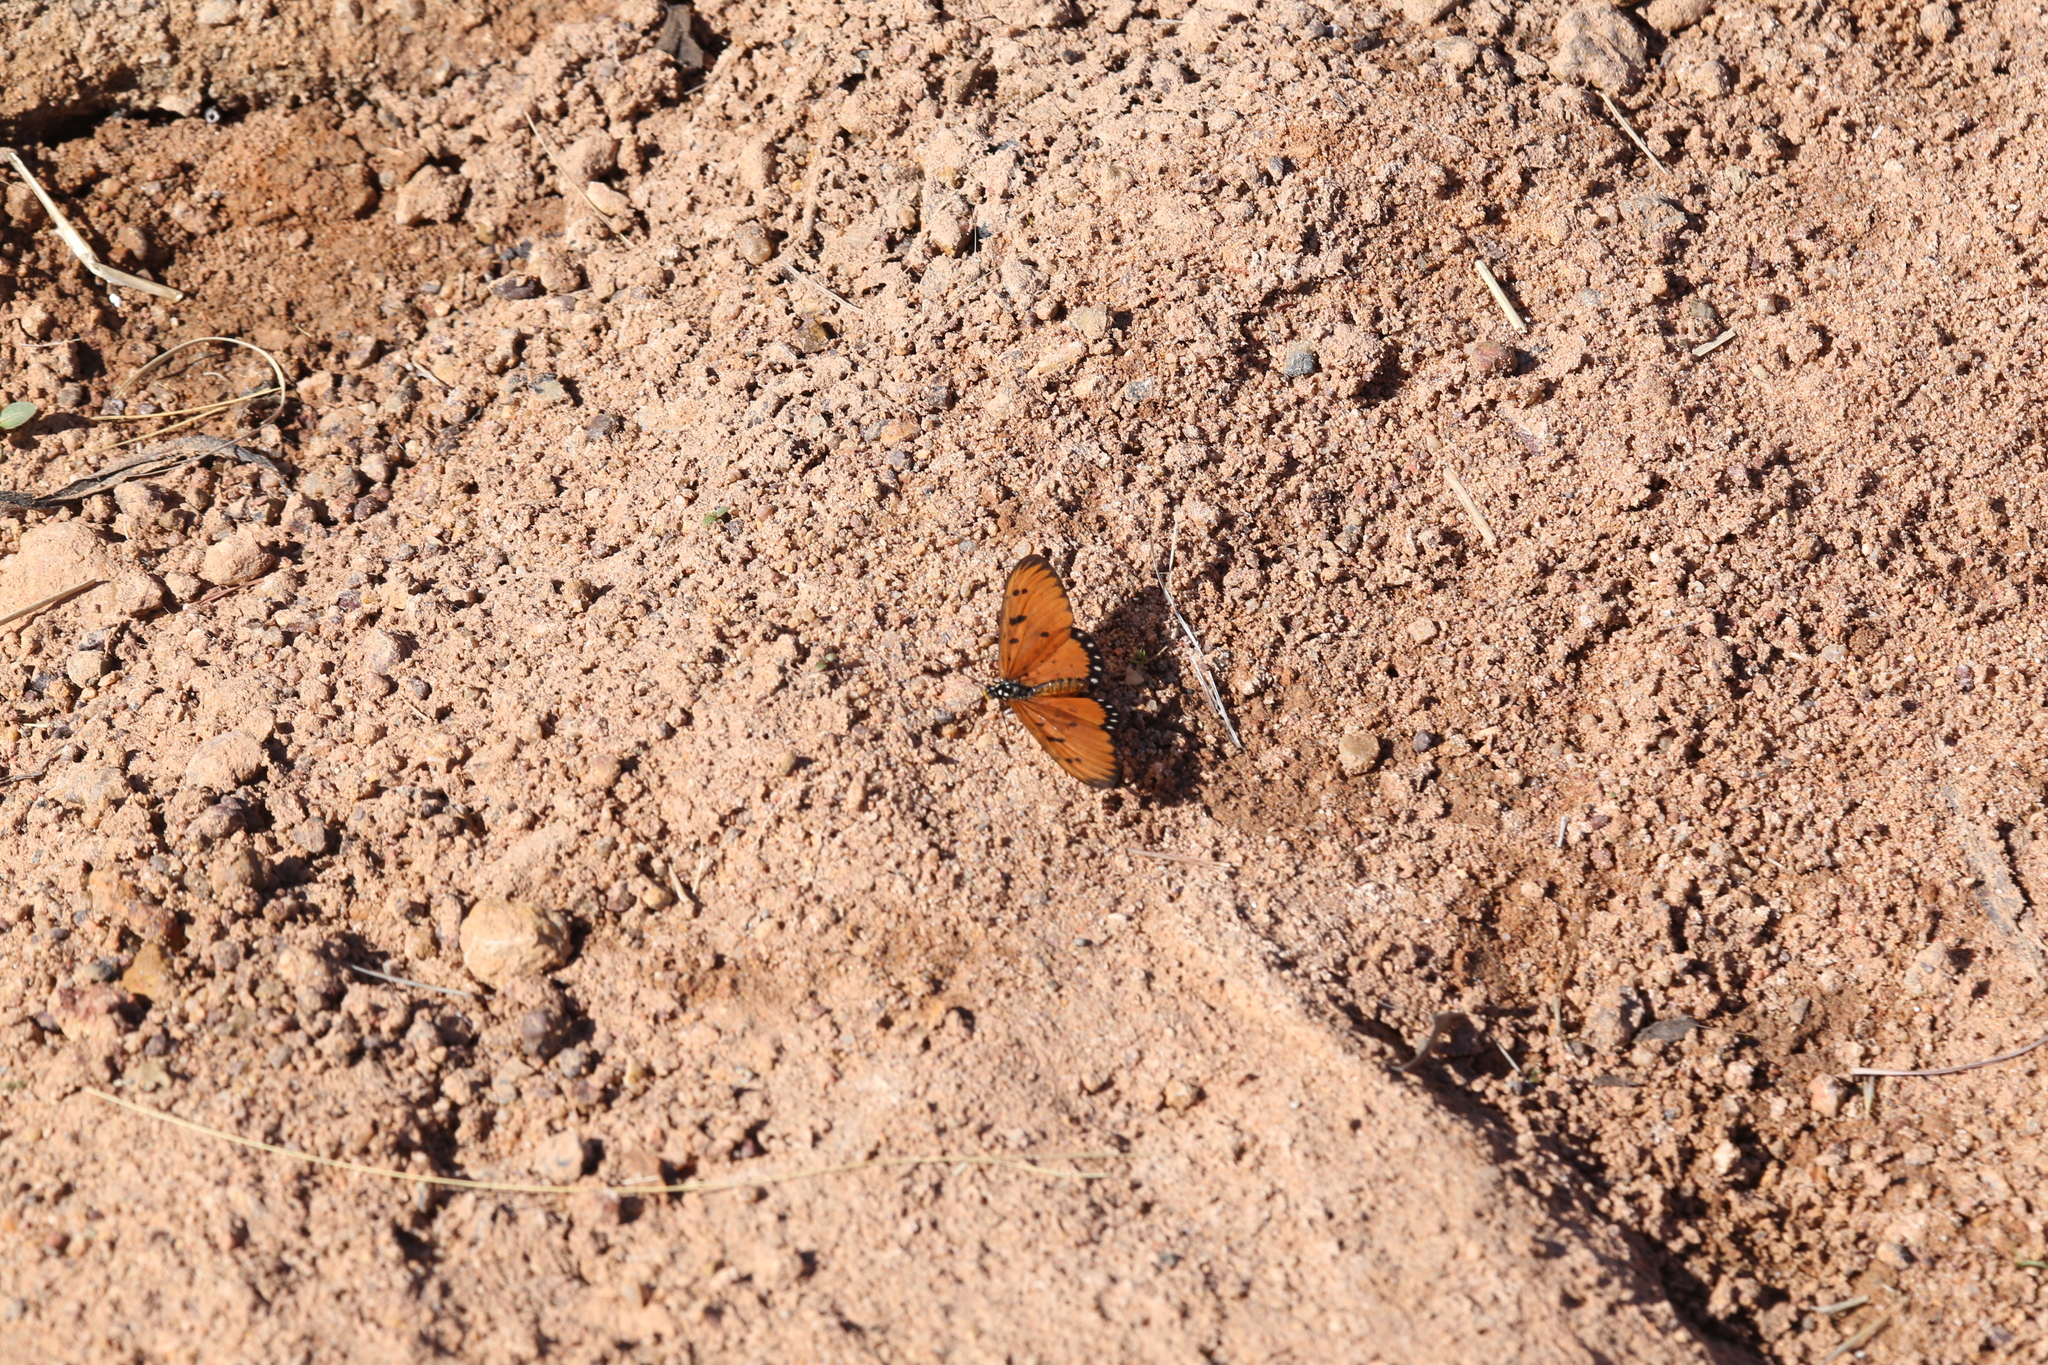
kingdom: Animalia
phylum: Arthropoda
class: Insecta
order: Lepidoptera
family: Nymphalidae
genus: Acraea
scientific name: Acraea terpsicore
